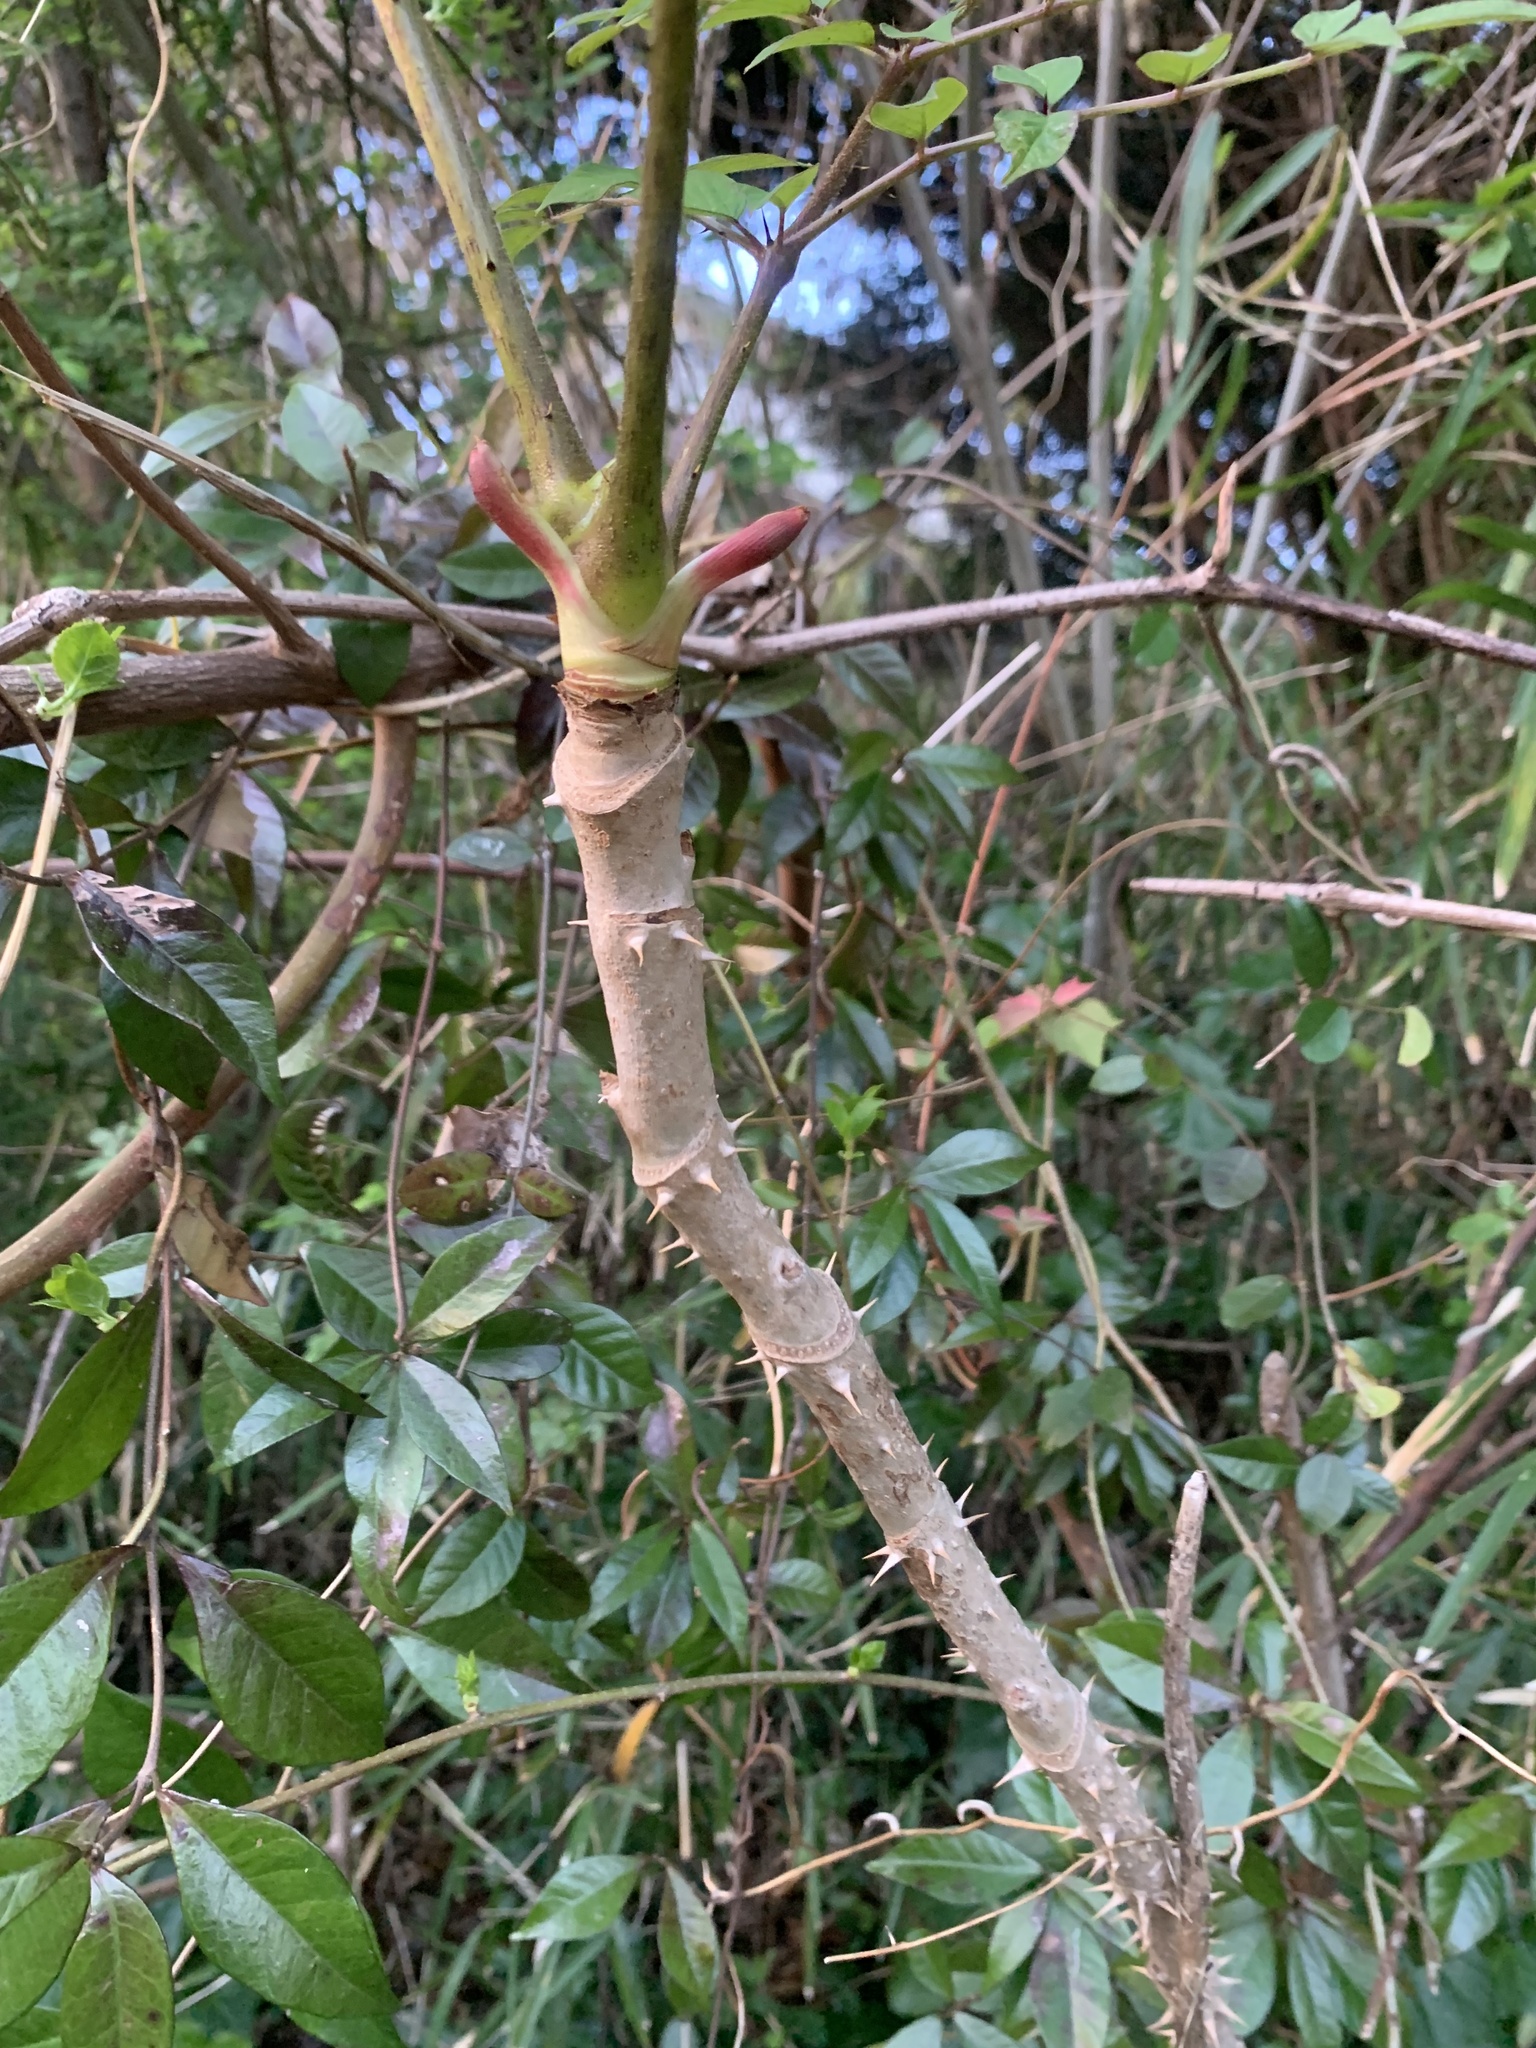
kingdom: Plantae
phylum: Tracheophyta
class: Magnoliopsida
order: Apiales
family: Araliaceae
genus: Aralia
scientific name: Aralia elata
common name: Japanese angelica-tree
